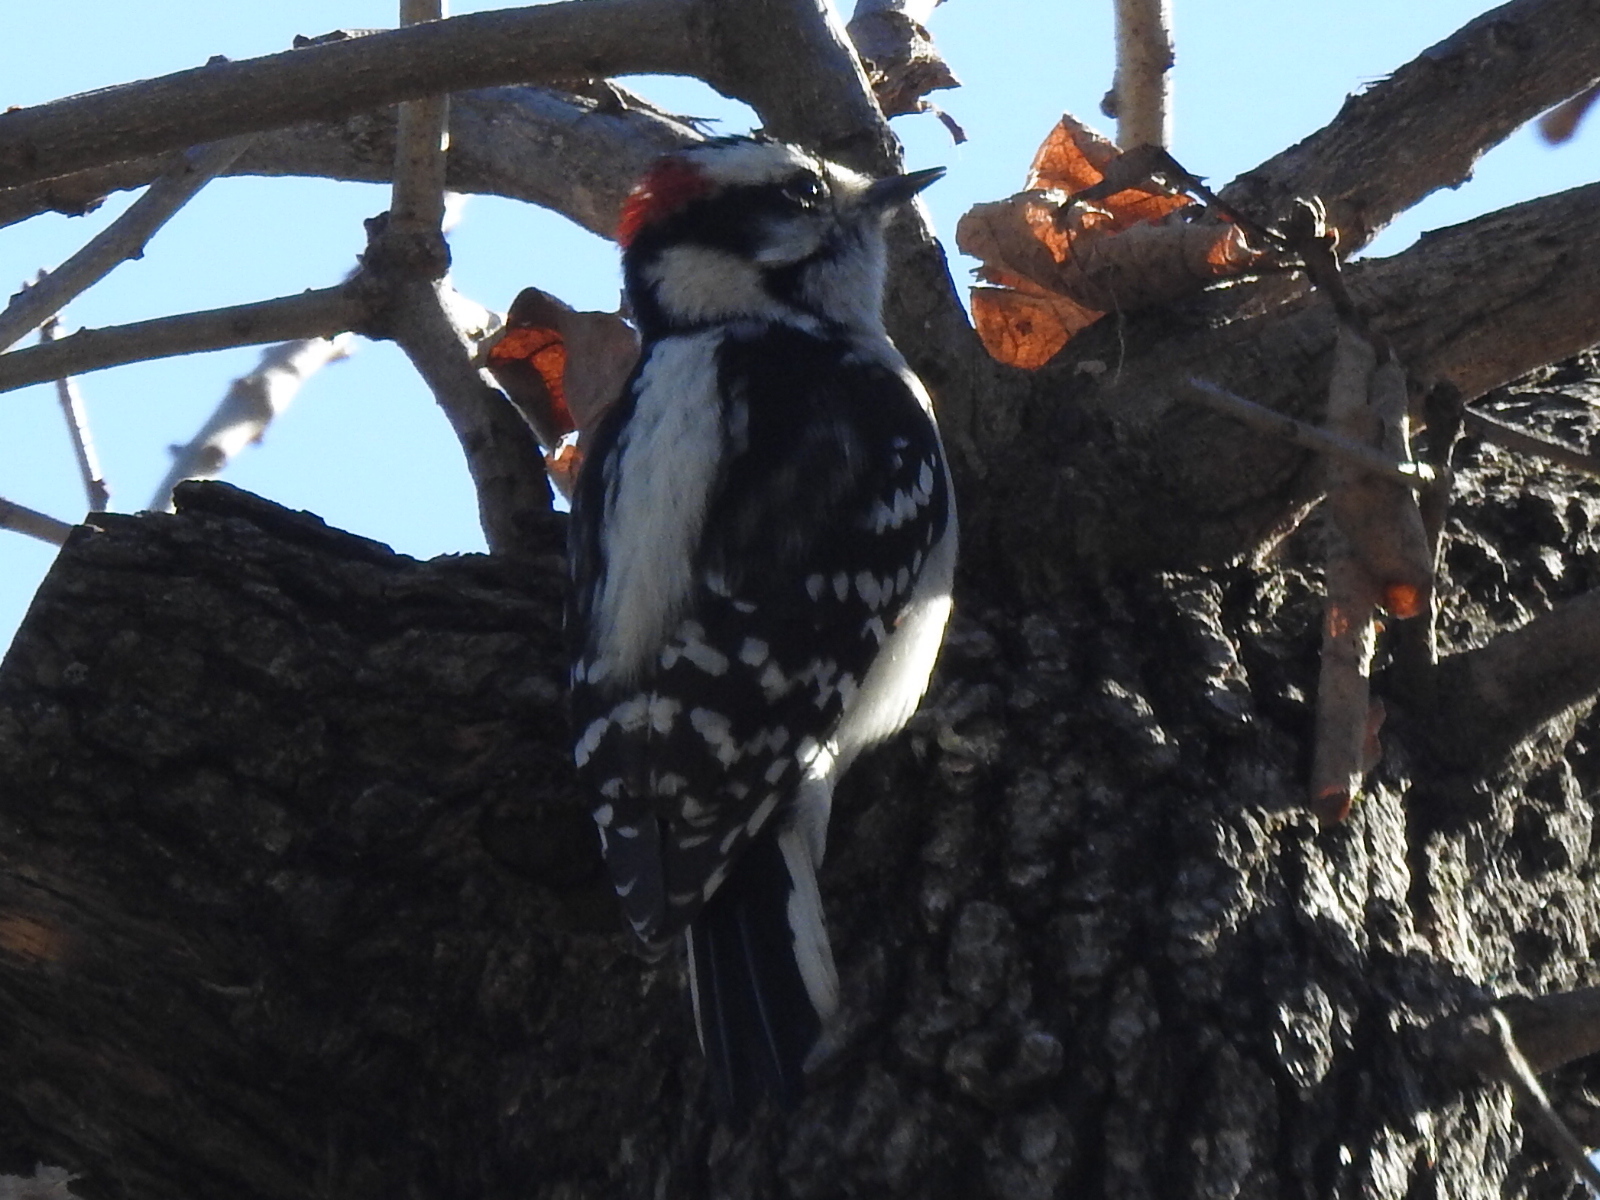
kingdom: Animalia
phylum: Chordata
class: Aves
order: Piciformes
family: Picidae
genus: Dryobates
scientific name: Dryobates pubescens
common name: Downy woodpecker
